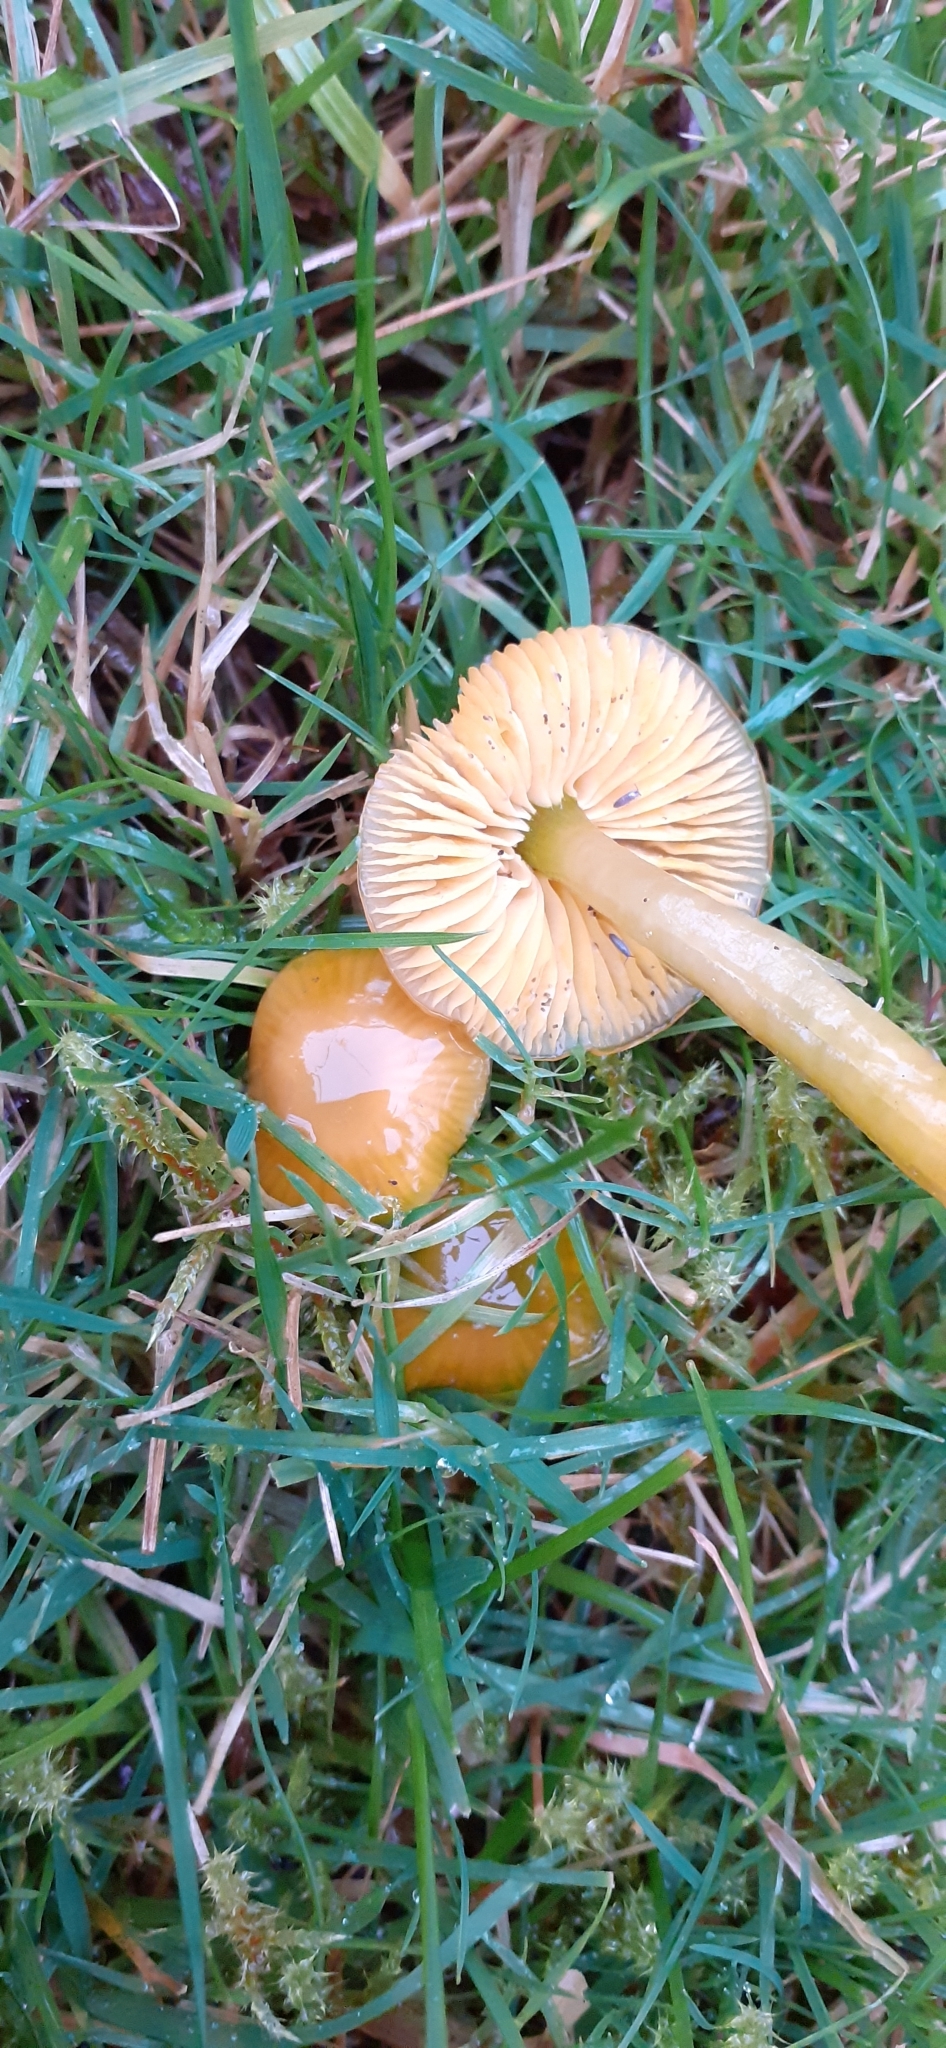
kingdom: Fungi
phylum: Basidiomycota
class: Agaricomycetes
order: Agaricales
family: Hygrophoraceae
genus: Gliophorus
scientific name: Gliophorus psittacinus
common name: Parrot wax-cap
